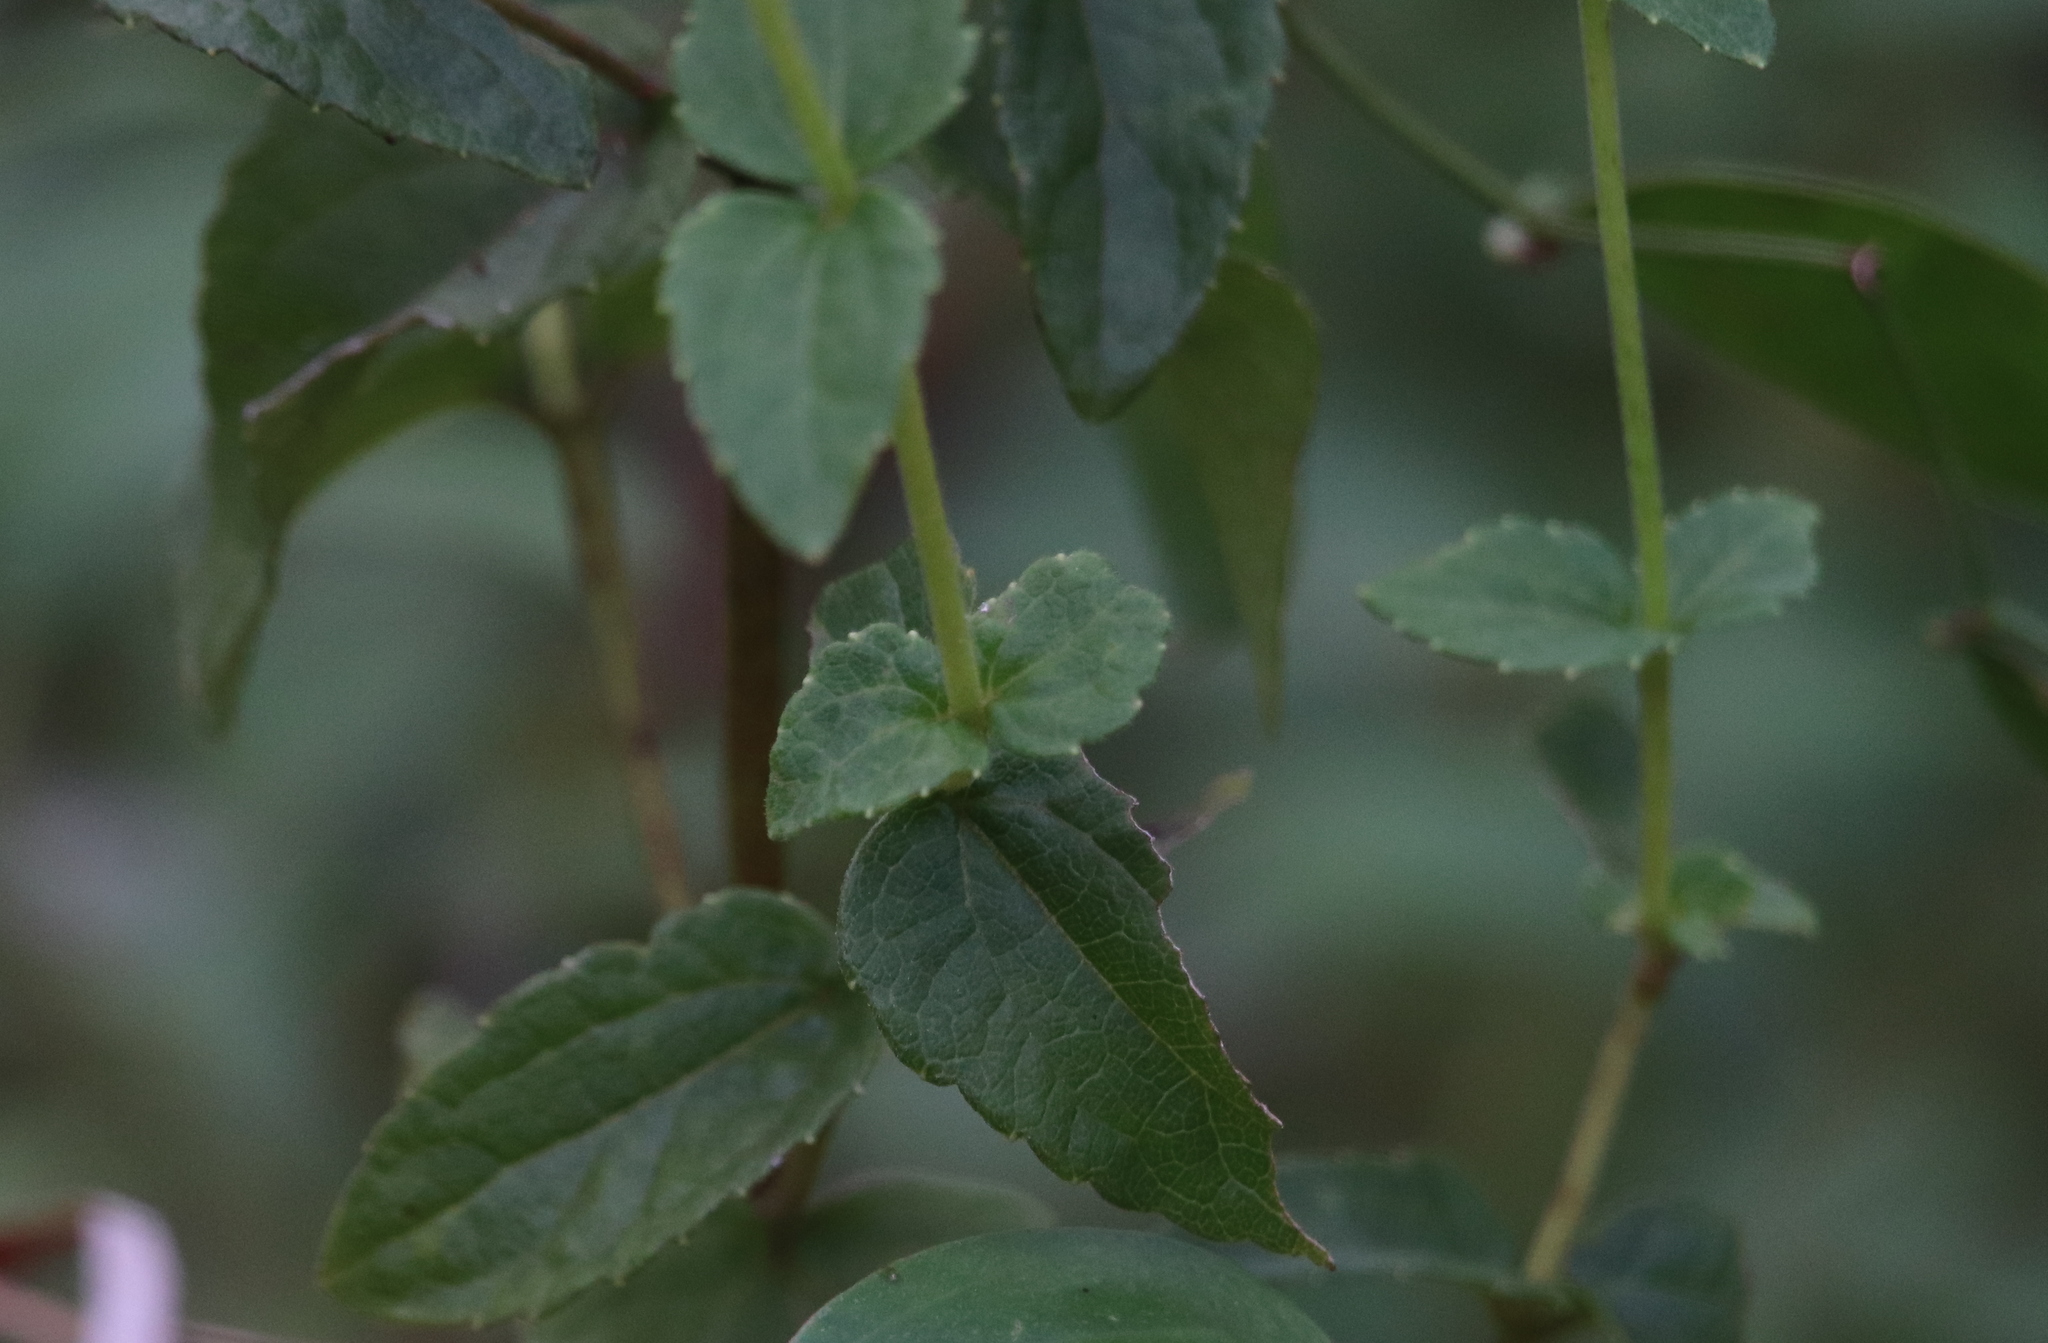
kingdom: Plantae
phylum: Tracheophyta
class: Magnoliopsida
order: Asterales
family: Asteraceae
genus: Ageratina
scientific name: Ageratina altissima
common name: White snakeroot
